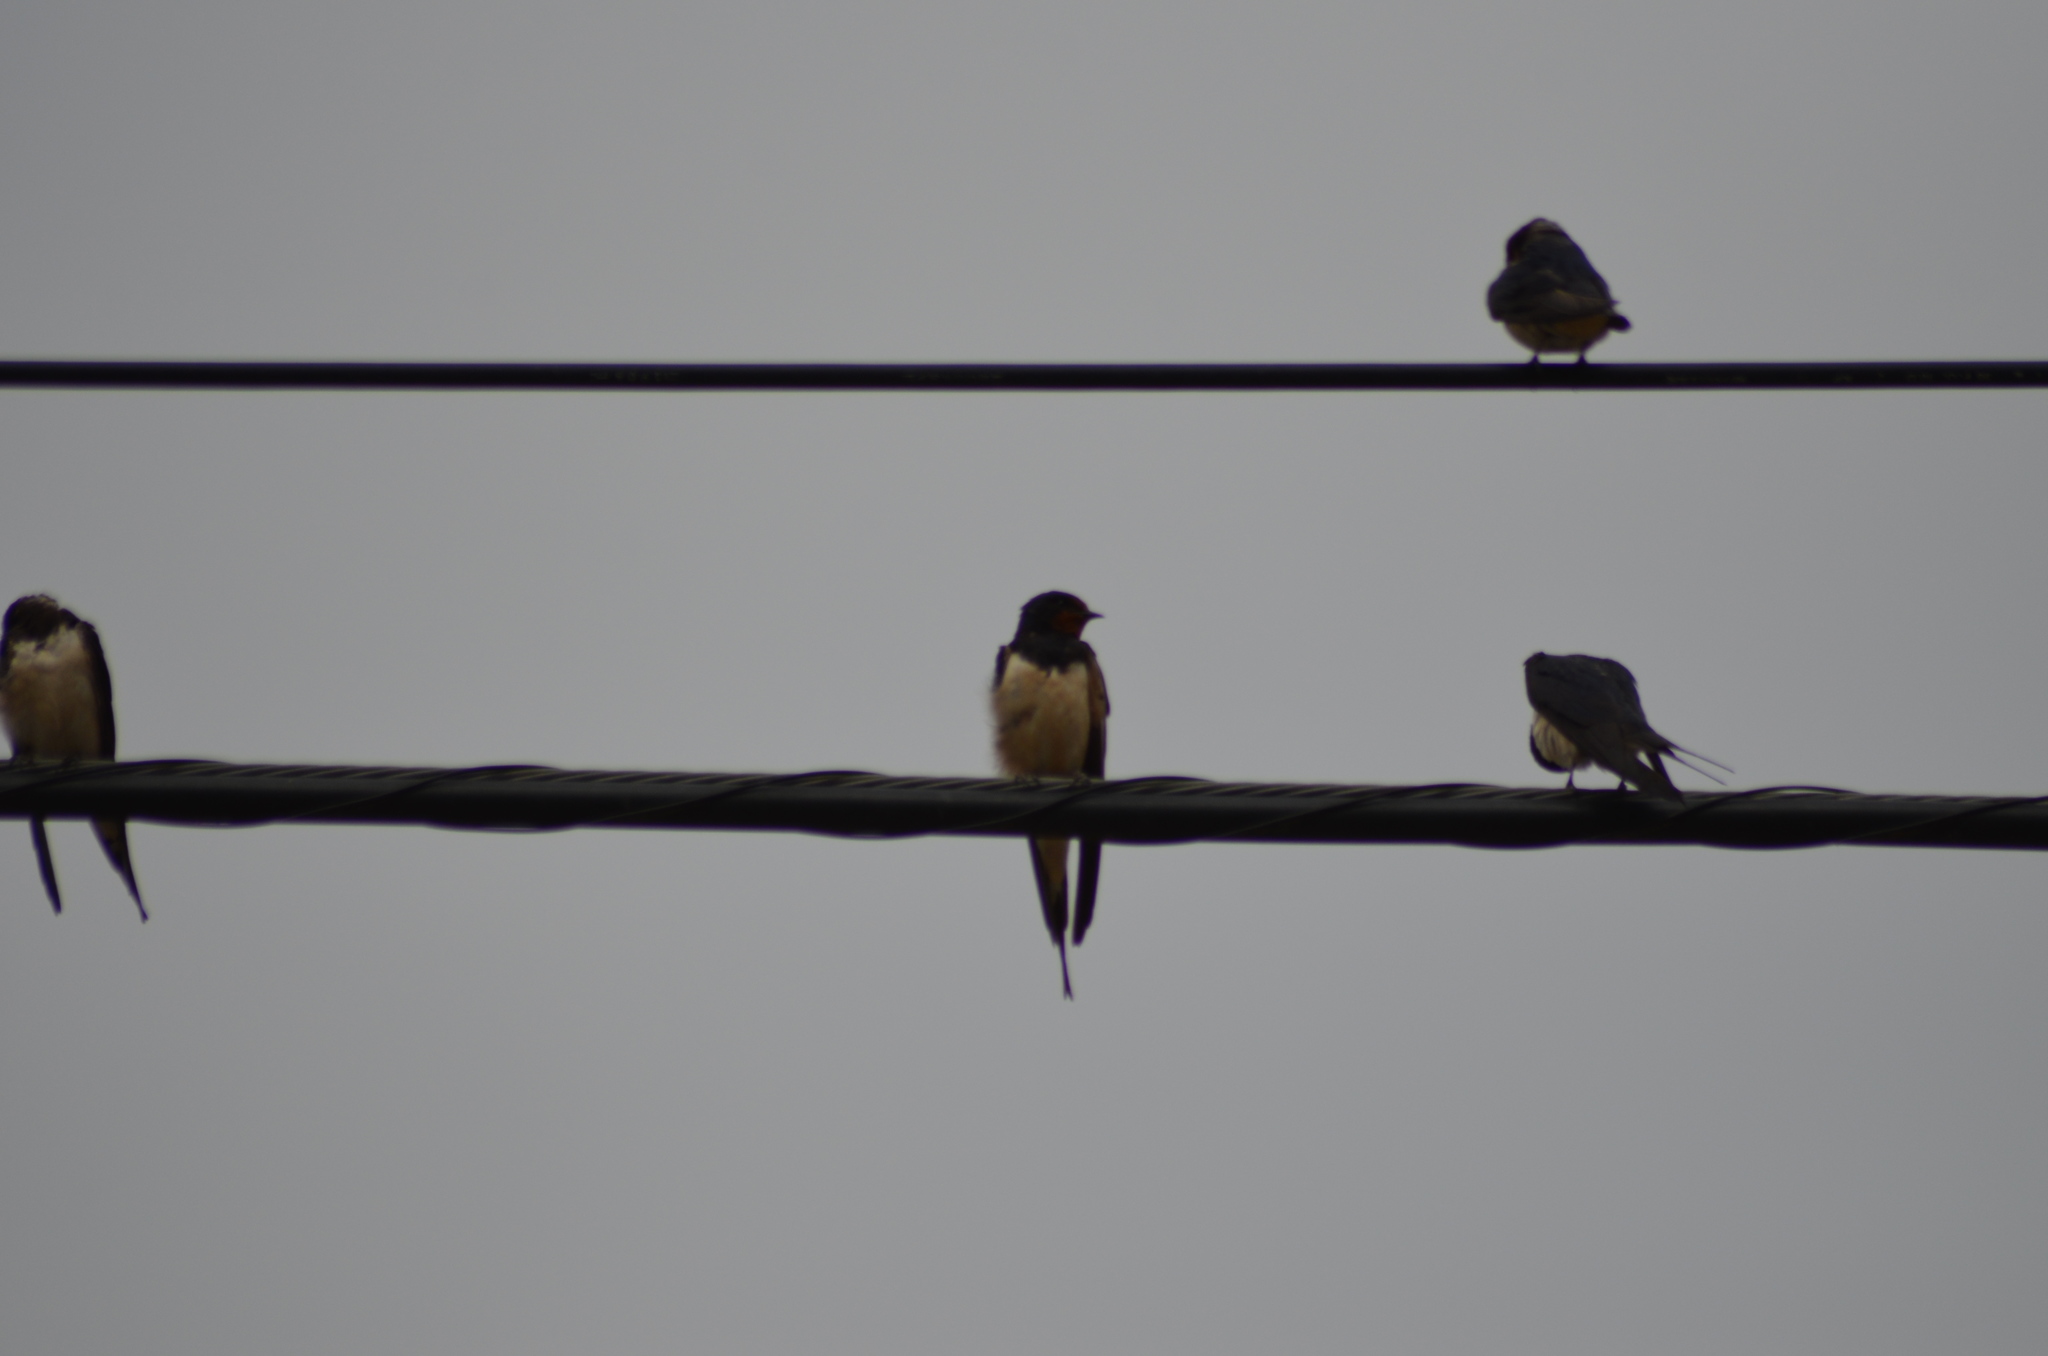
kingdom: Animalia
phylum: Chordata
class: Aves
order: Passeriformes
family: Hirundinidae
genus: Hirundo
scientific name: Hirundo rustica
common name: Barn swallow
